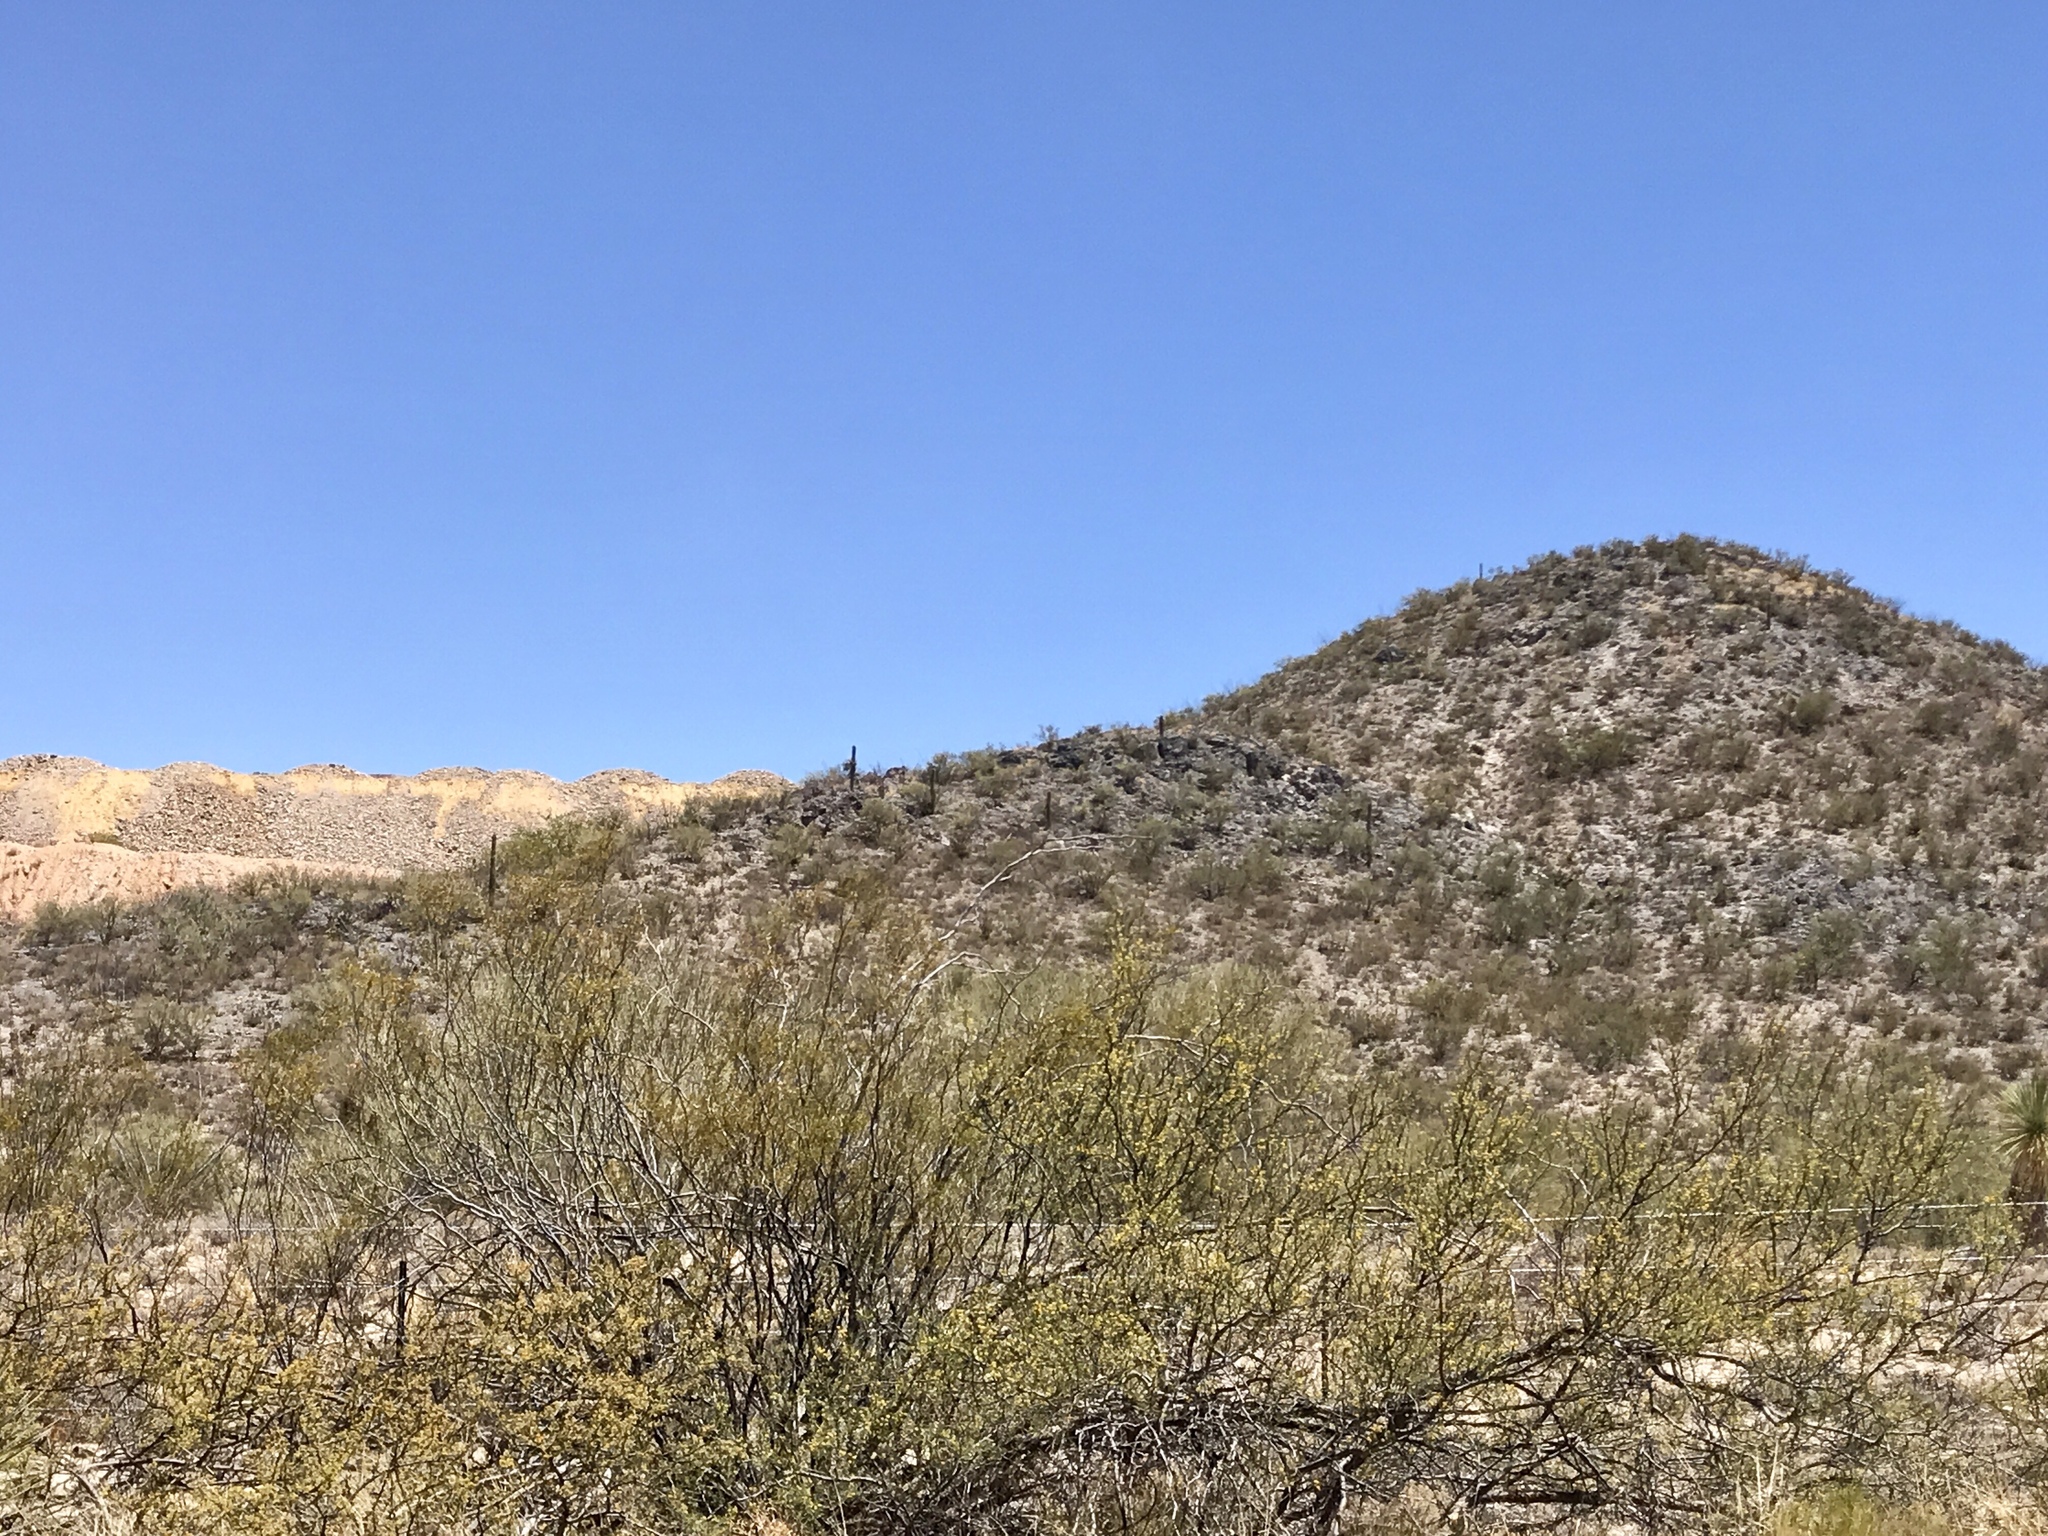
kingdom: Plantae
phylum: Tracheophyta
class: Magnoliopsida
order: Zygophyllales
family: Zygophyllaceae
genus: Larrea
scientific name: Larrea tridentata
